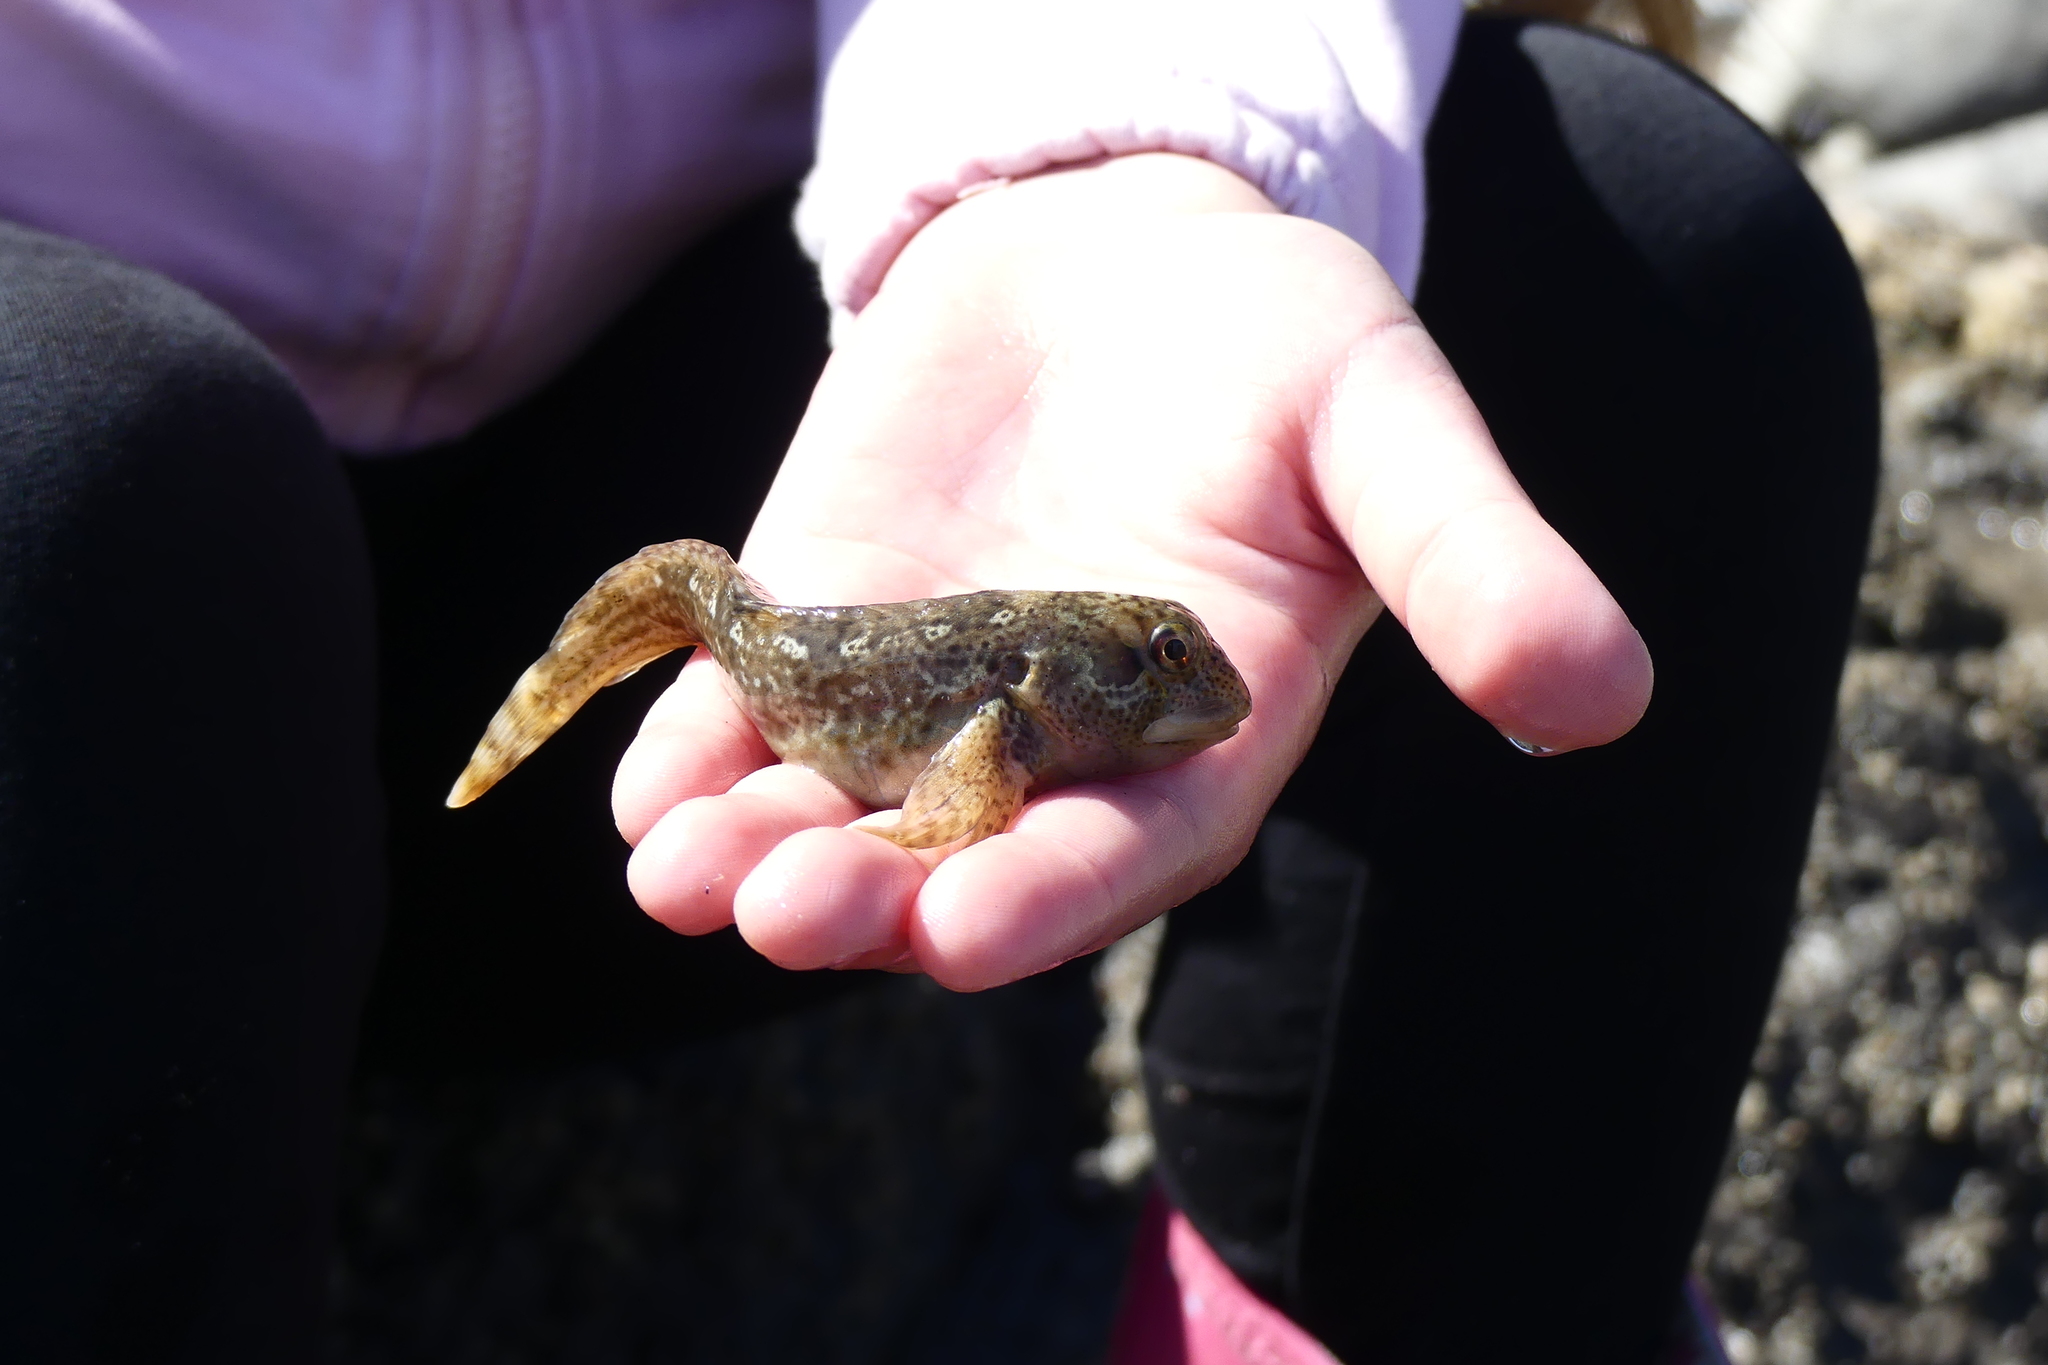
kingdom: Animalia
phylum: Chordata
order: Perciformes
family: Blenniidae
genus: Lipophrys
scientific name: Lipophrys pholis
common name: Shanny
